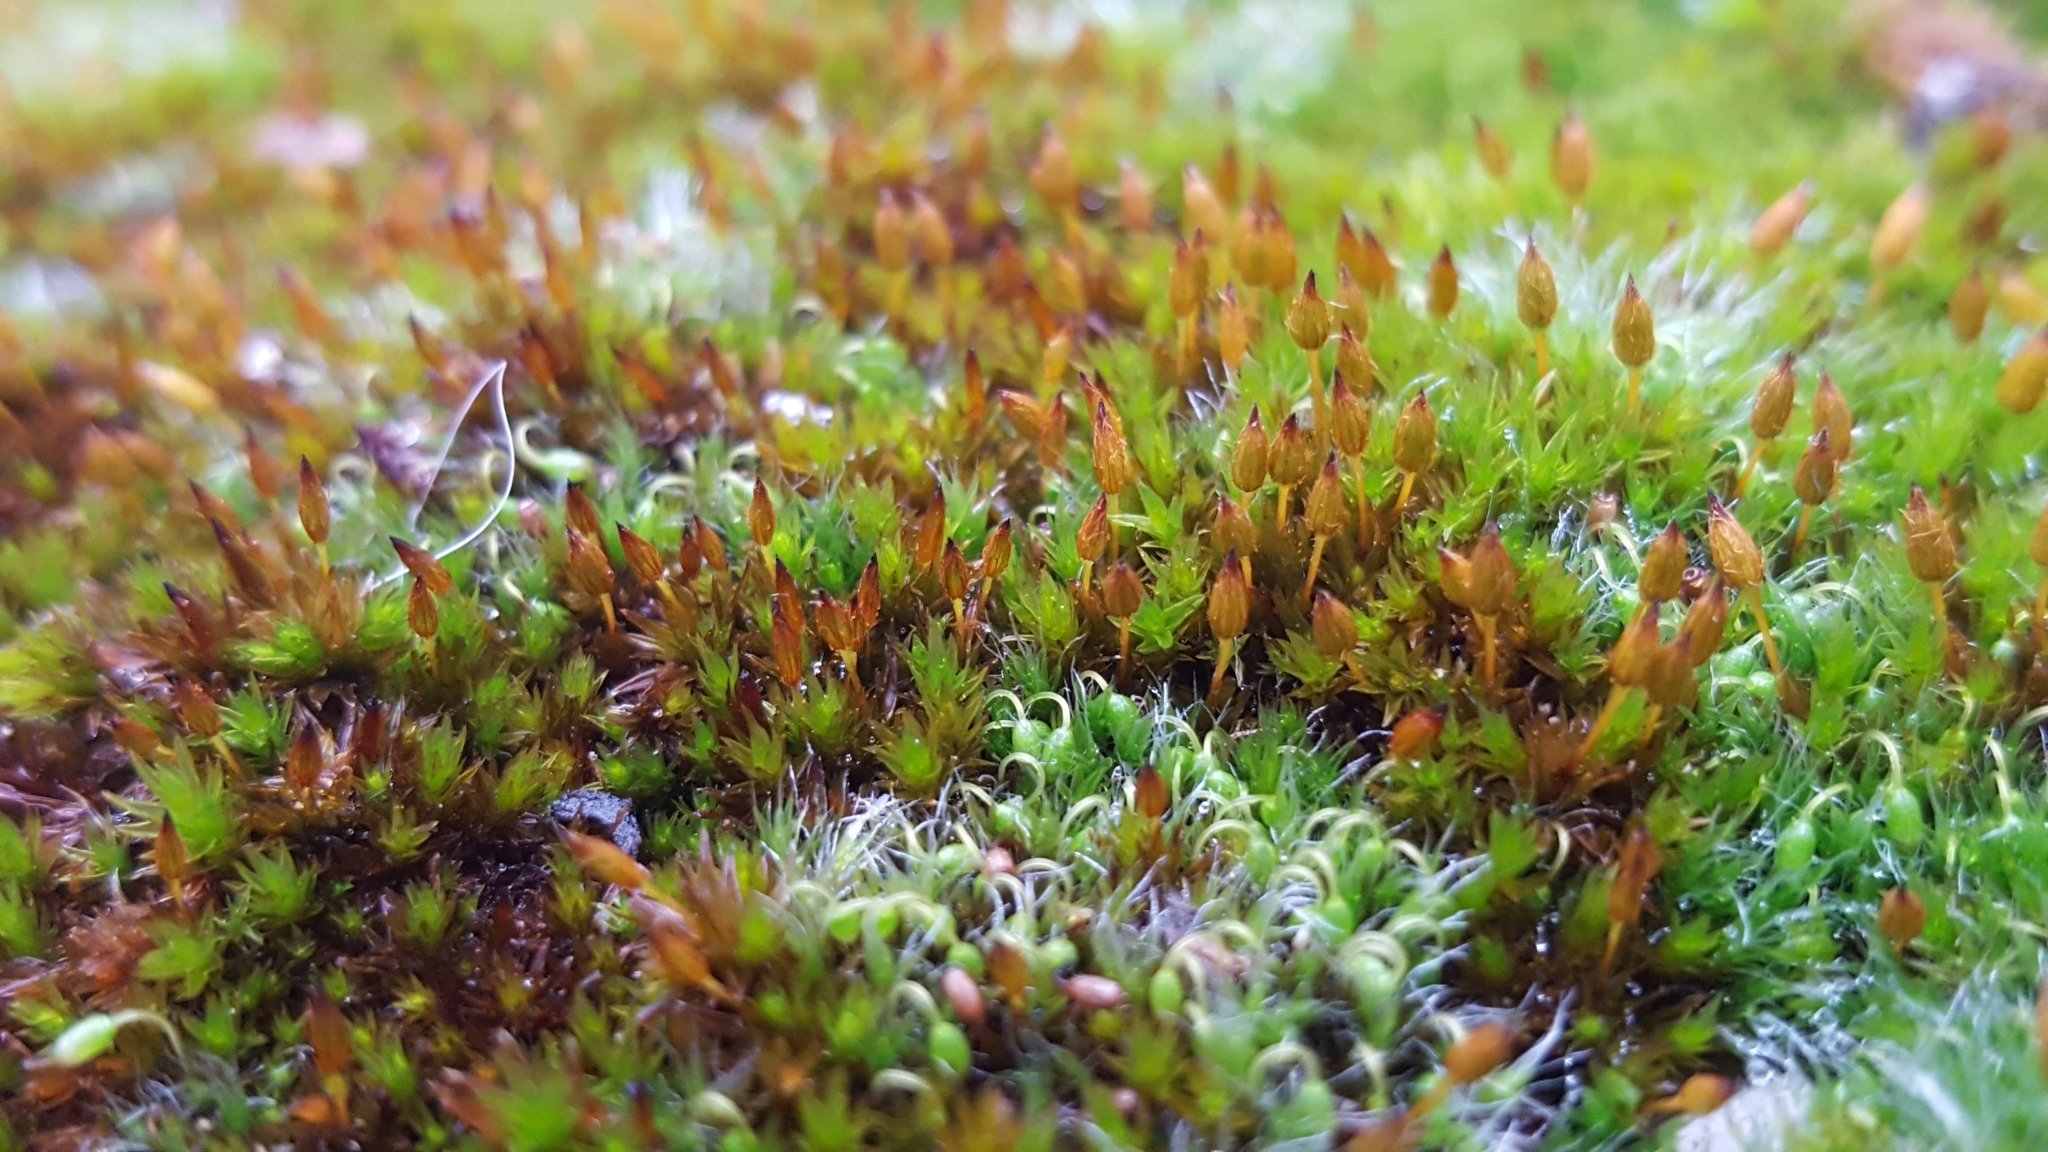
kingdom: Plantae
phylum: Bryophyta
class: Bryopsida
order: Orthotrichales
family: Orthotrichaceae
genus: Orthotrichum
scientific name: Orthotrichum anomalum
